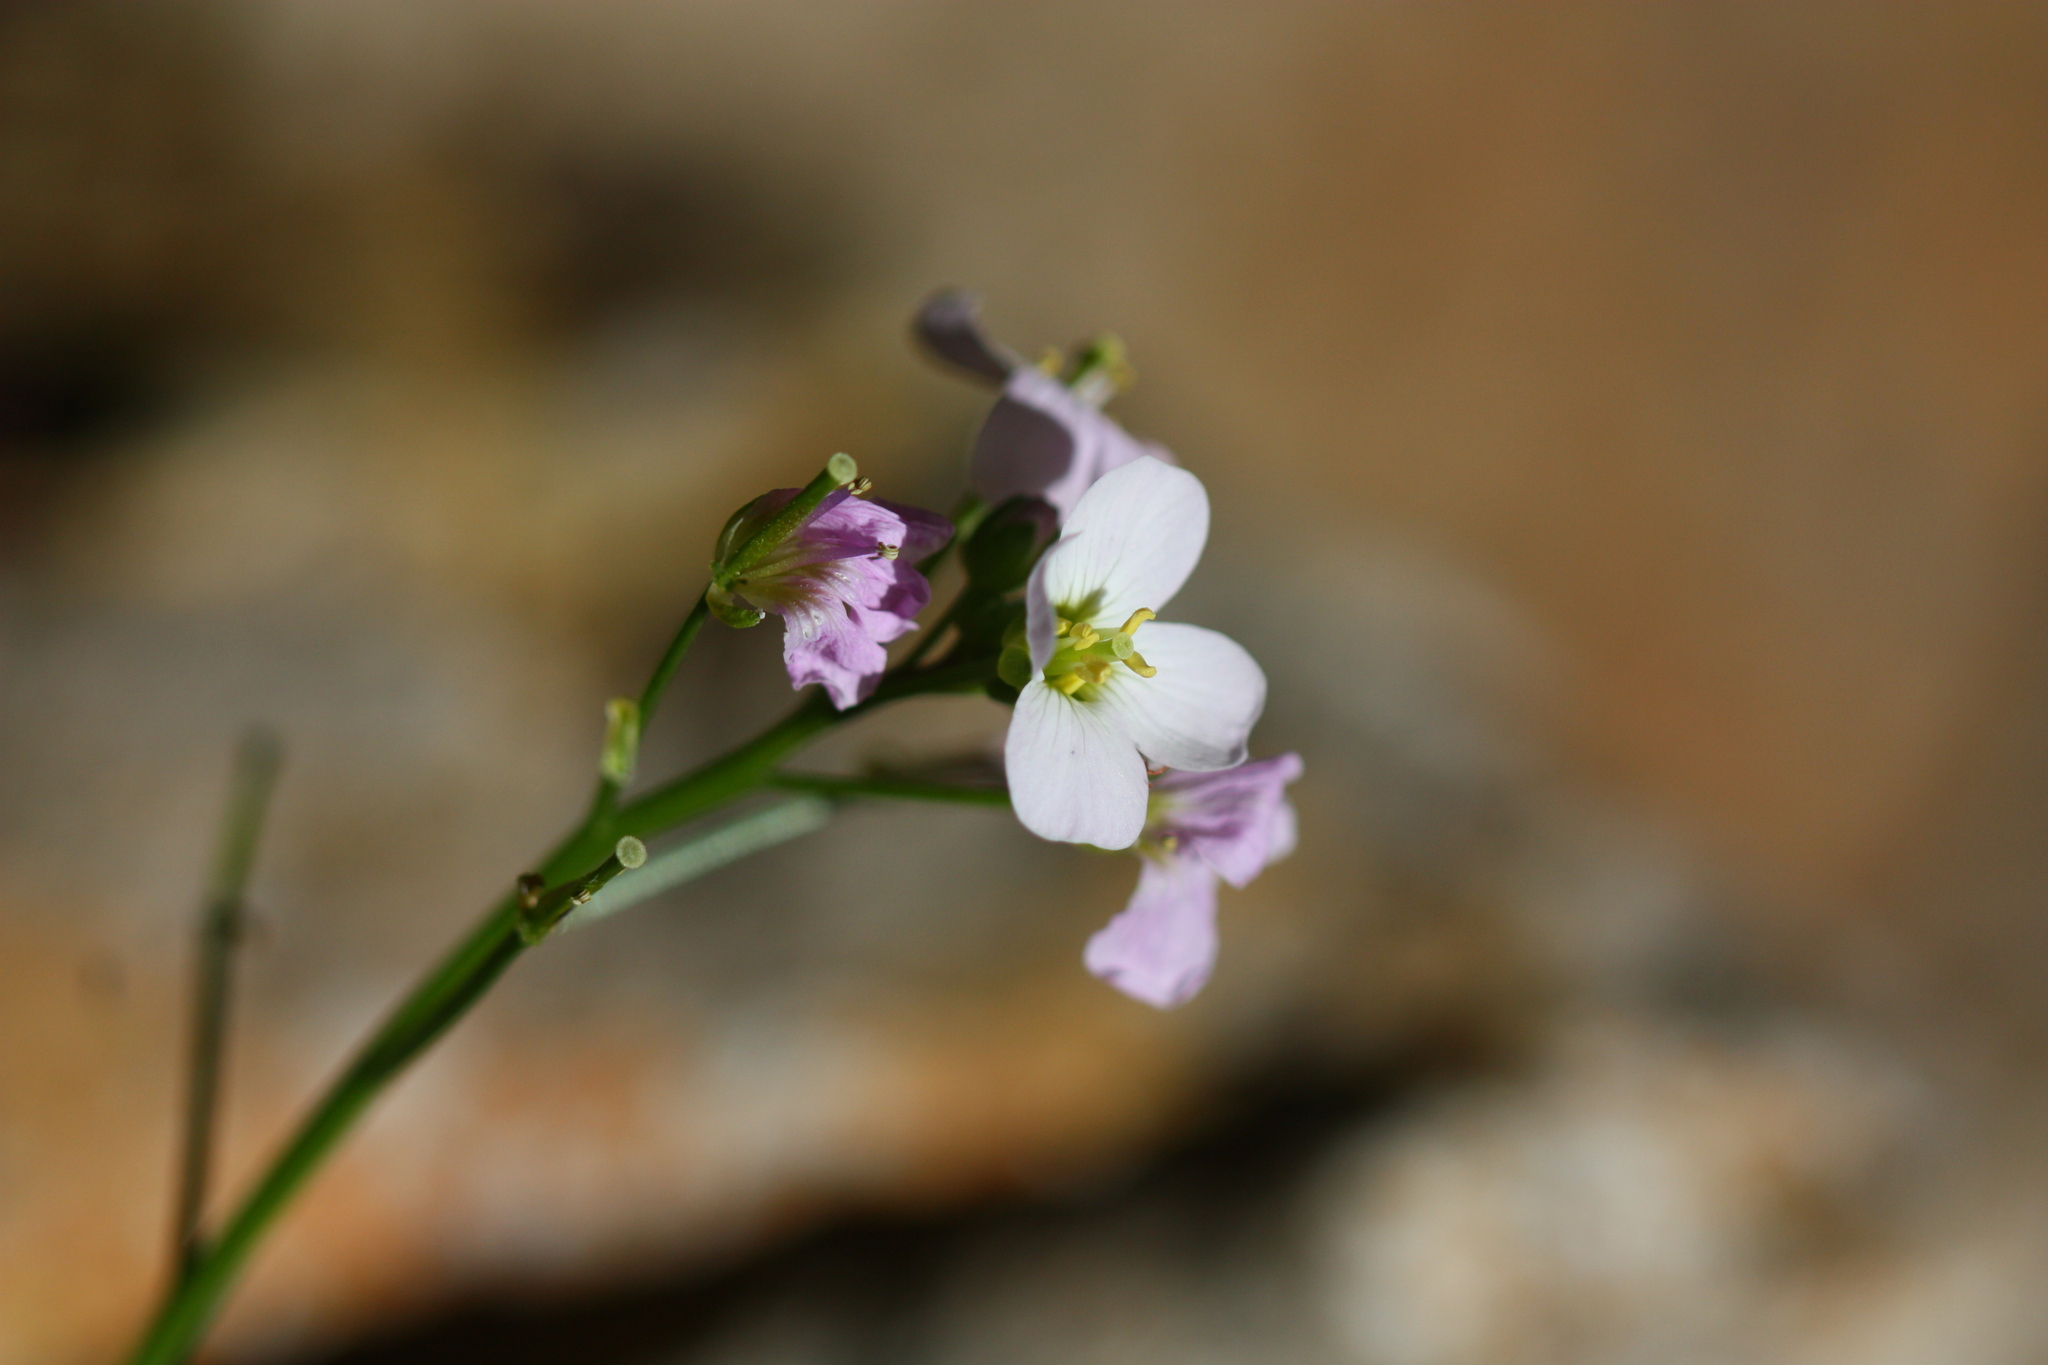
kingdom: Plantae
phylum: Tracheophyta
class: Magnoliopsida
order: Brassicales
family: Brassicaceae
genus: Cardamine
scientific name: Cardamine californica
